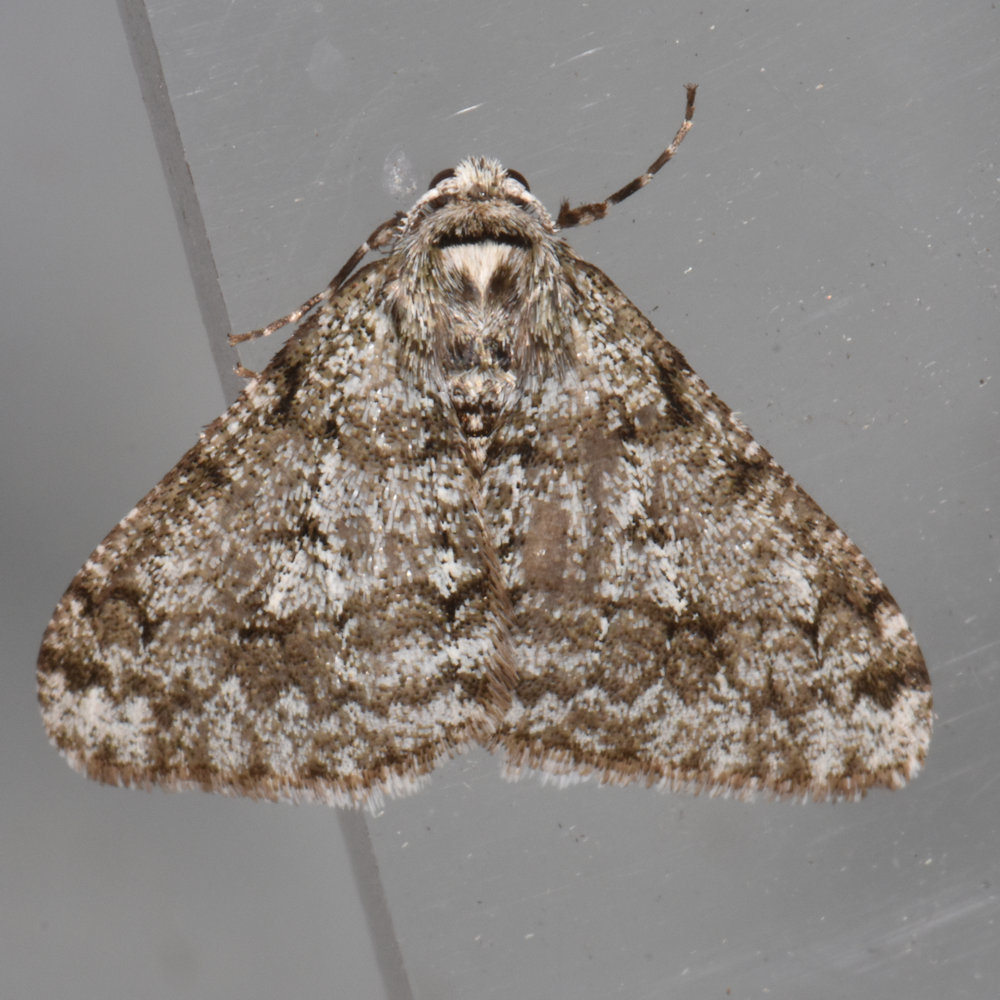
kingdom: Animalia
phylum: Arthropoda
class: Insecta
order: Lepidoptera
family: Geometridae
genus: Phigalia
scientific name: Phigalia strigataria
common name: Small phigalia
